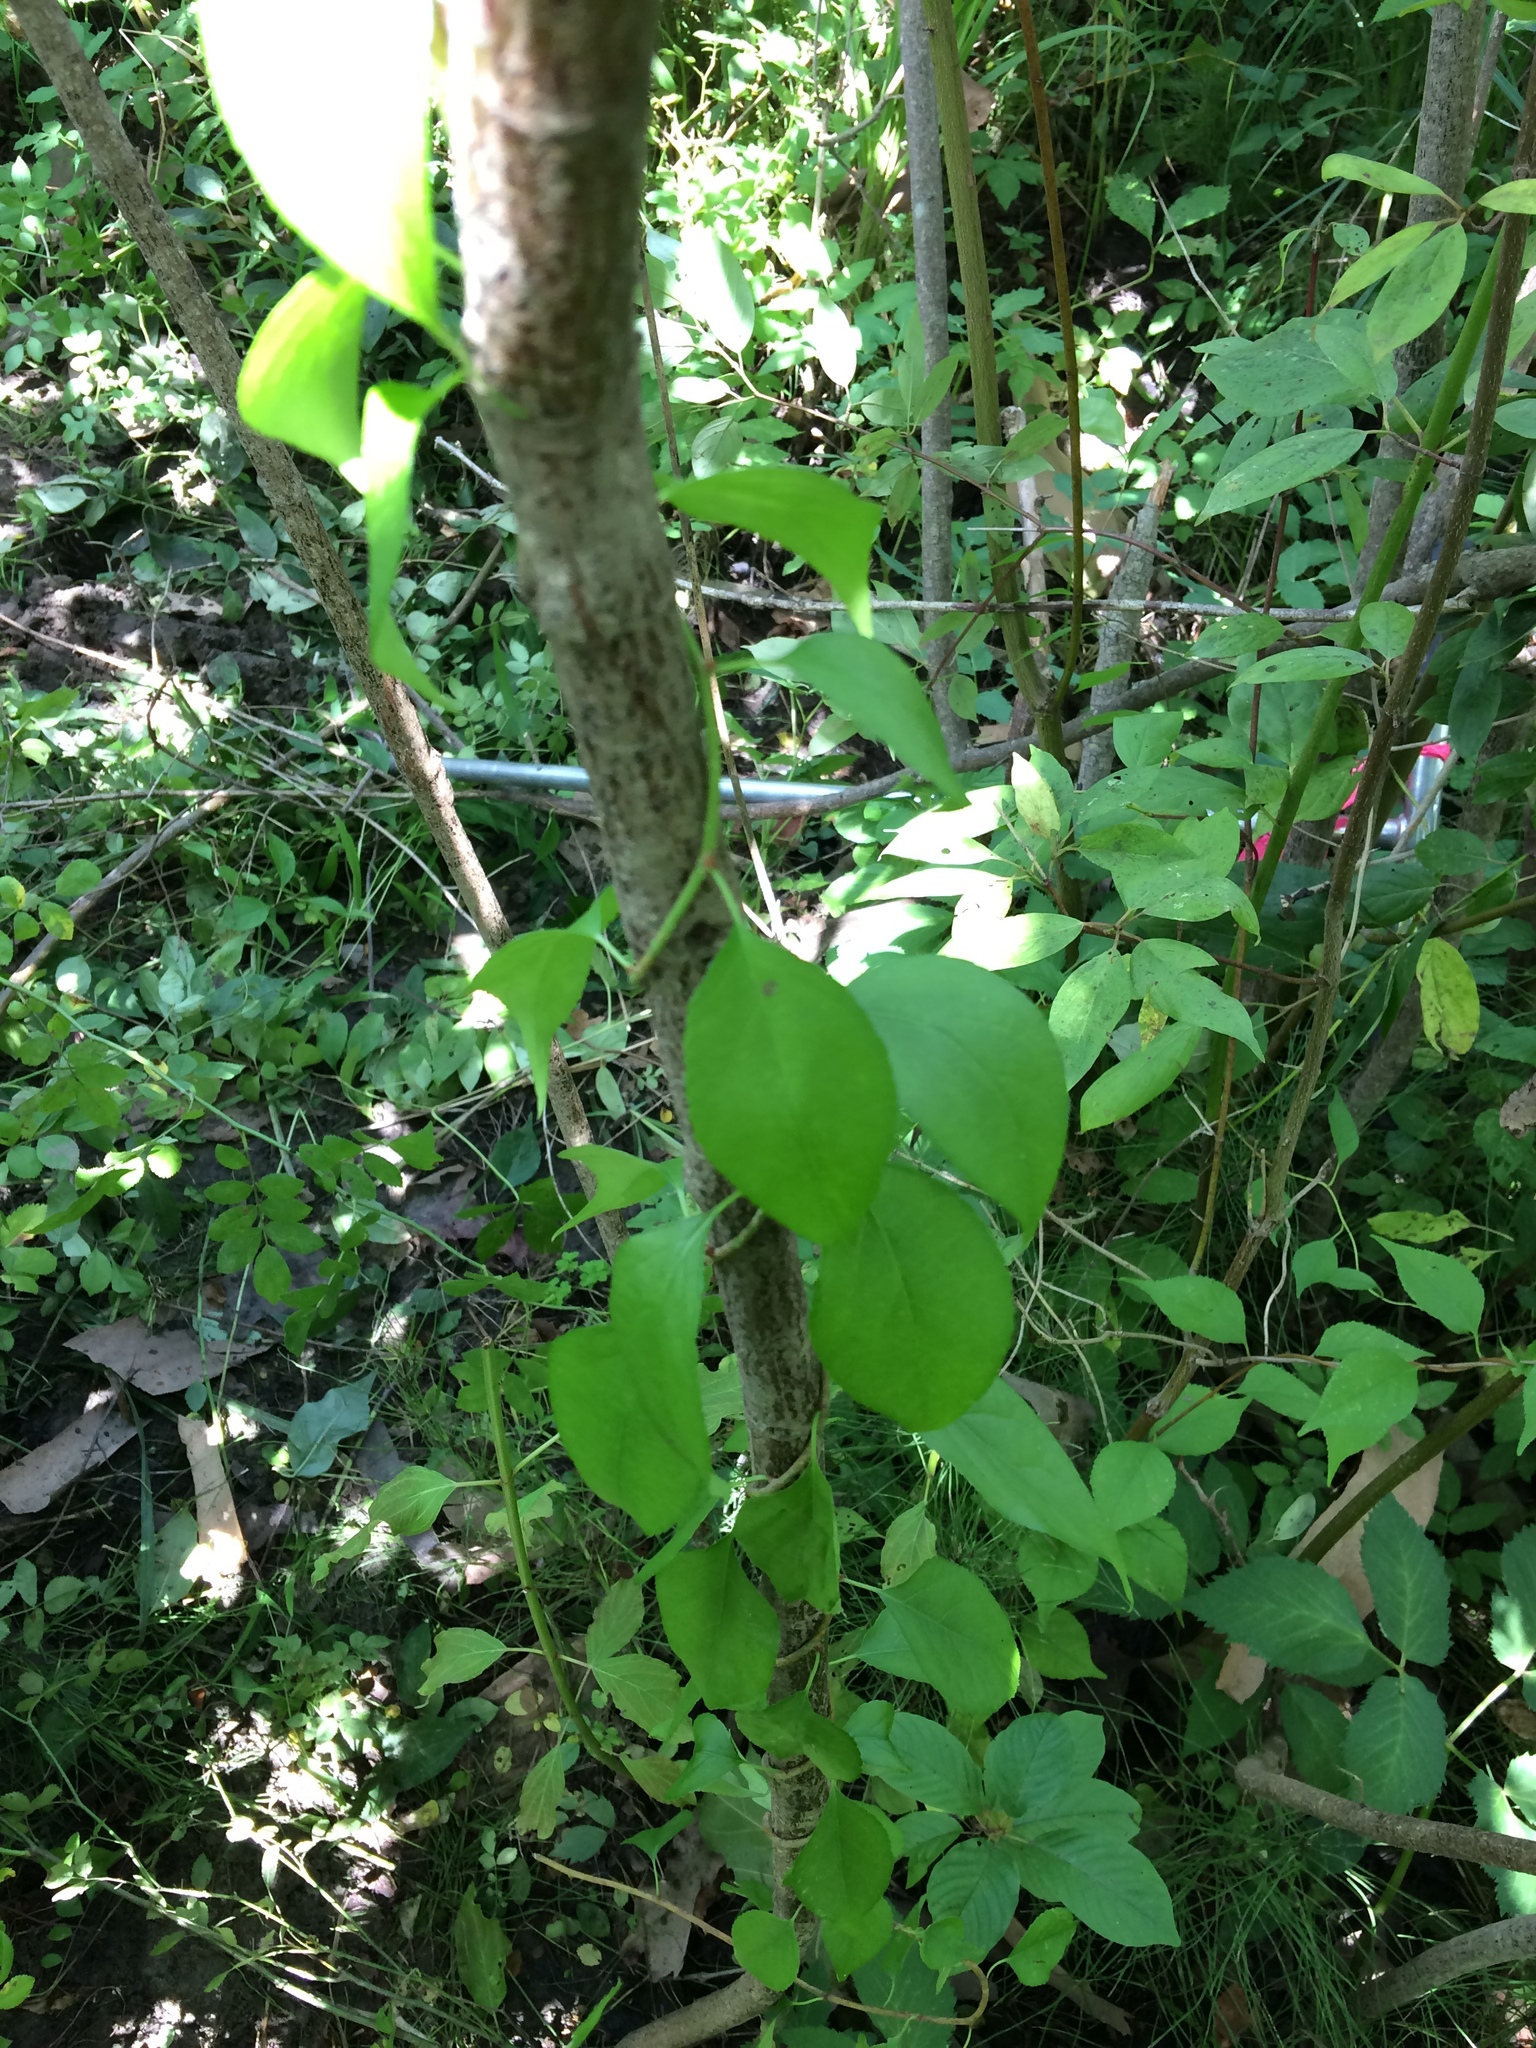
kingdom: Plantae
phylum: Tracheophyta
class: Magnoliopsida
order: Celastrales
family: Celastraceae
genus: Celastrus
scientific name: Celastrus orbiculatus
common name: Oriental bittersweet
